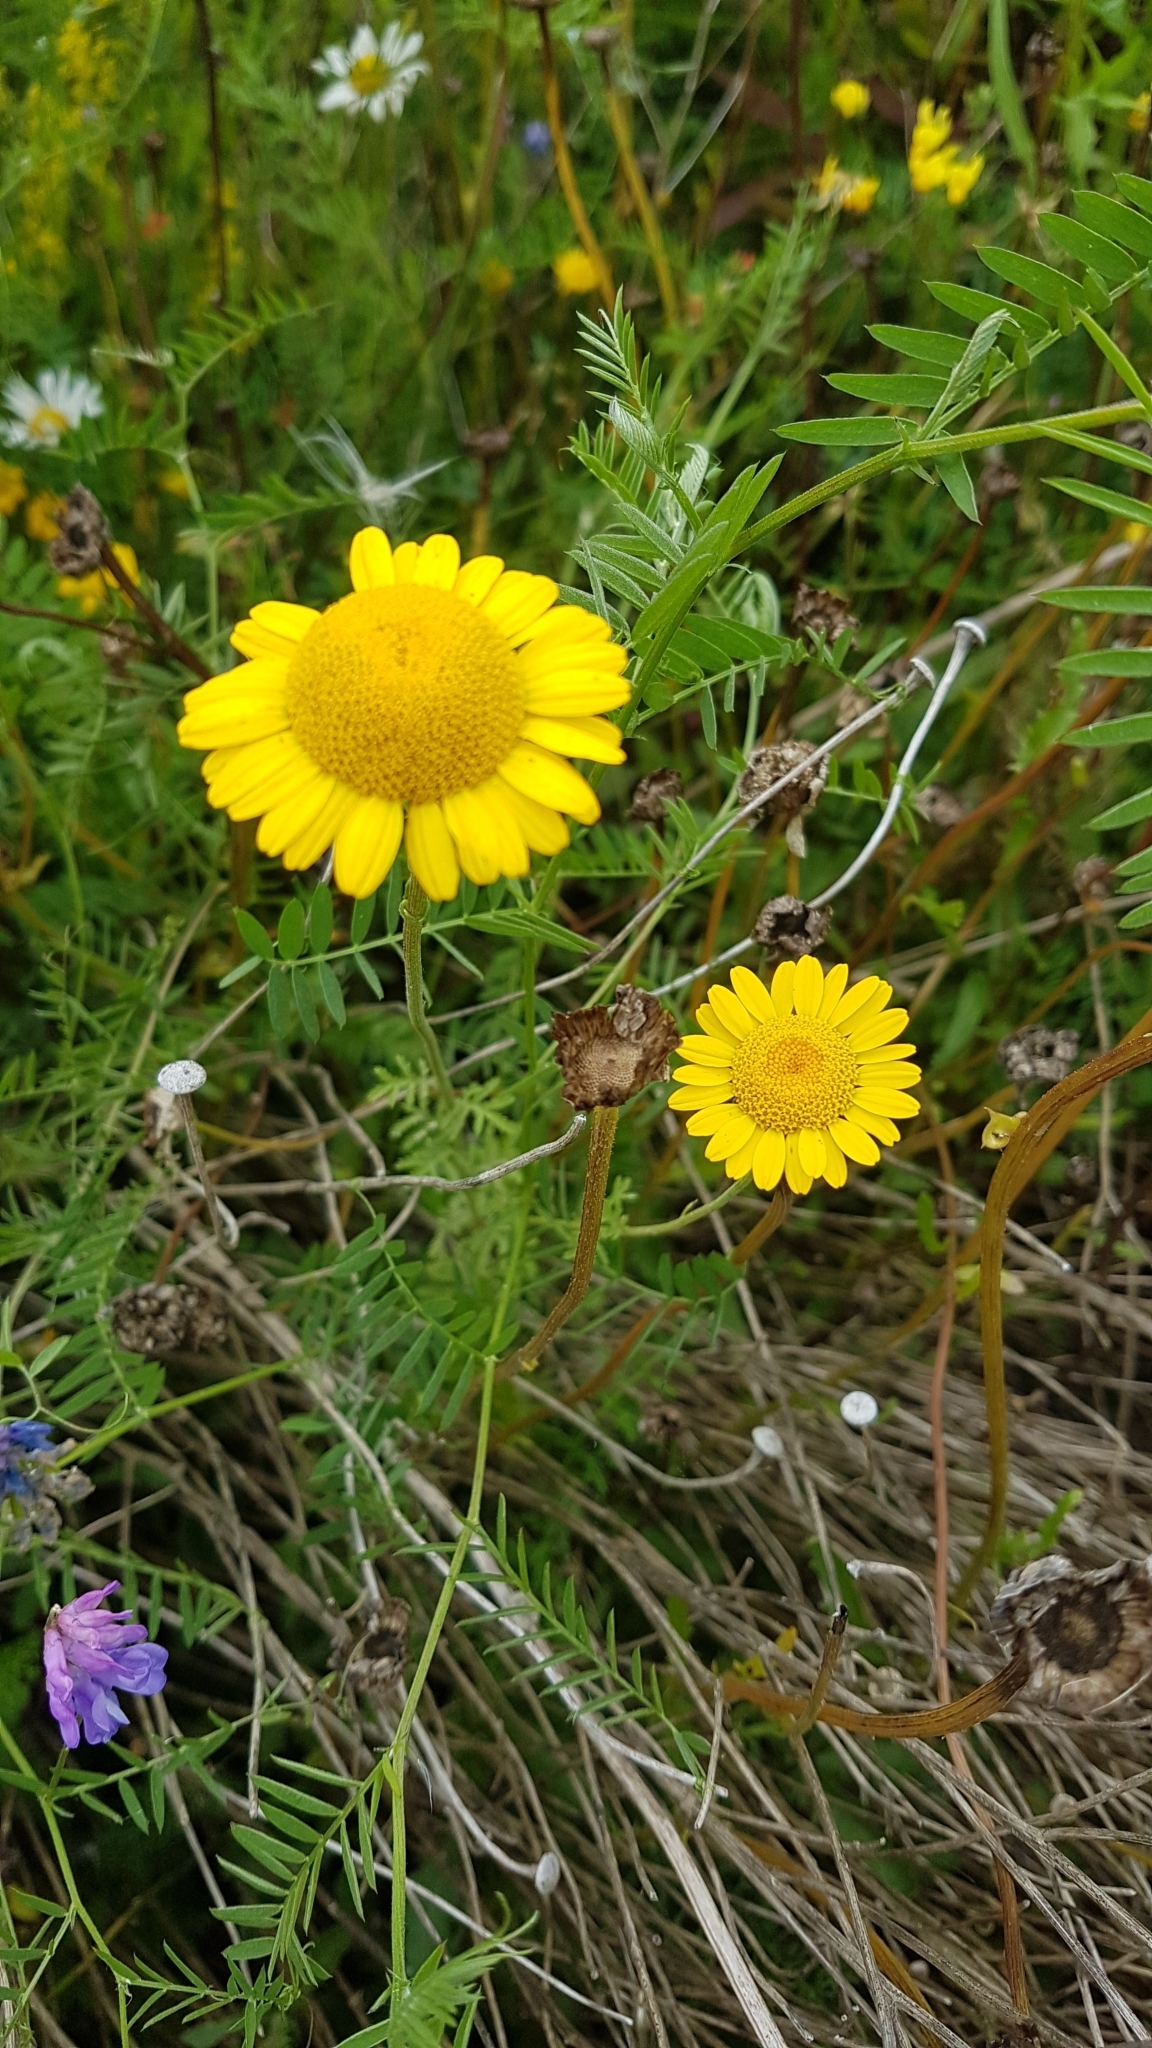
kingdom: Plantae
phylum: Tracheophyta
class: Magnoliopsida
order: Asterales
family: Asteraceae
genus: Cota
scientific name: Cota tinctoria
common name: Golden chamomile
